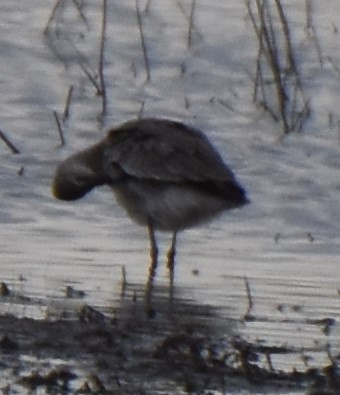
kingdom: Animalia
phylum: Chordata
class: Aves
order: Charadriiformes
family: Scolopacidae
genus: Tringa
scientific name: Tringa semipalmata
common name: Willet
